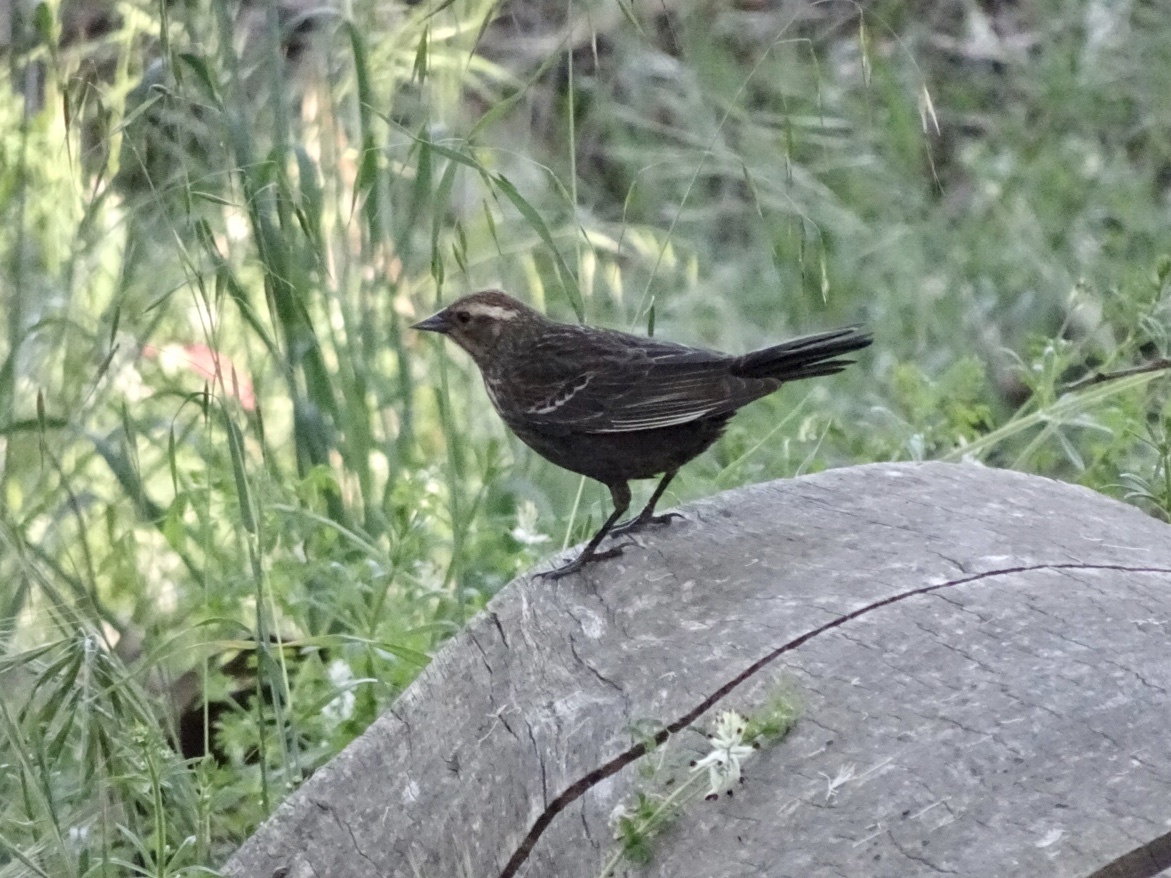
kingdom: Animalia
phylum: Chordata
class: Aves
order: Passeriformes
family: Icteridae
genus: Agelaius
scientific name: Agelaius phoeniceus
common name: Red-winged blackbird
